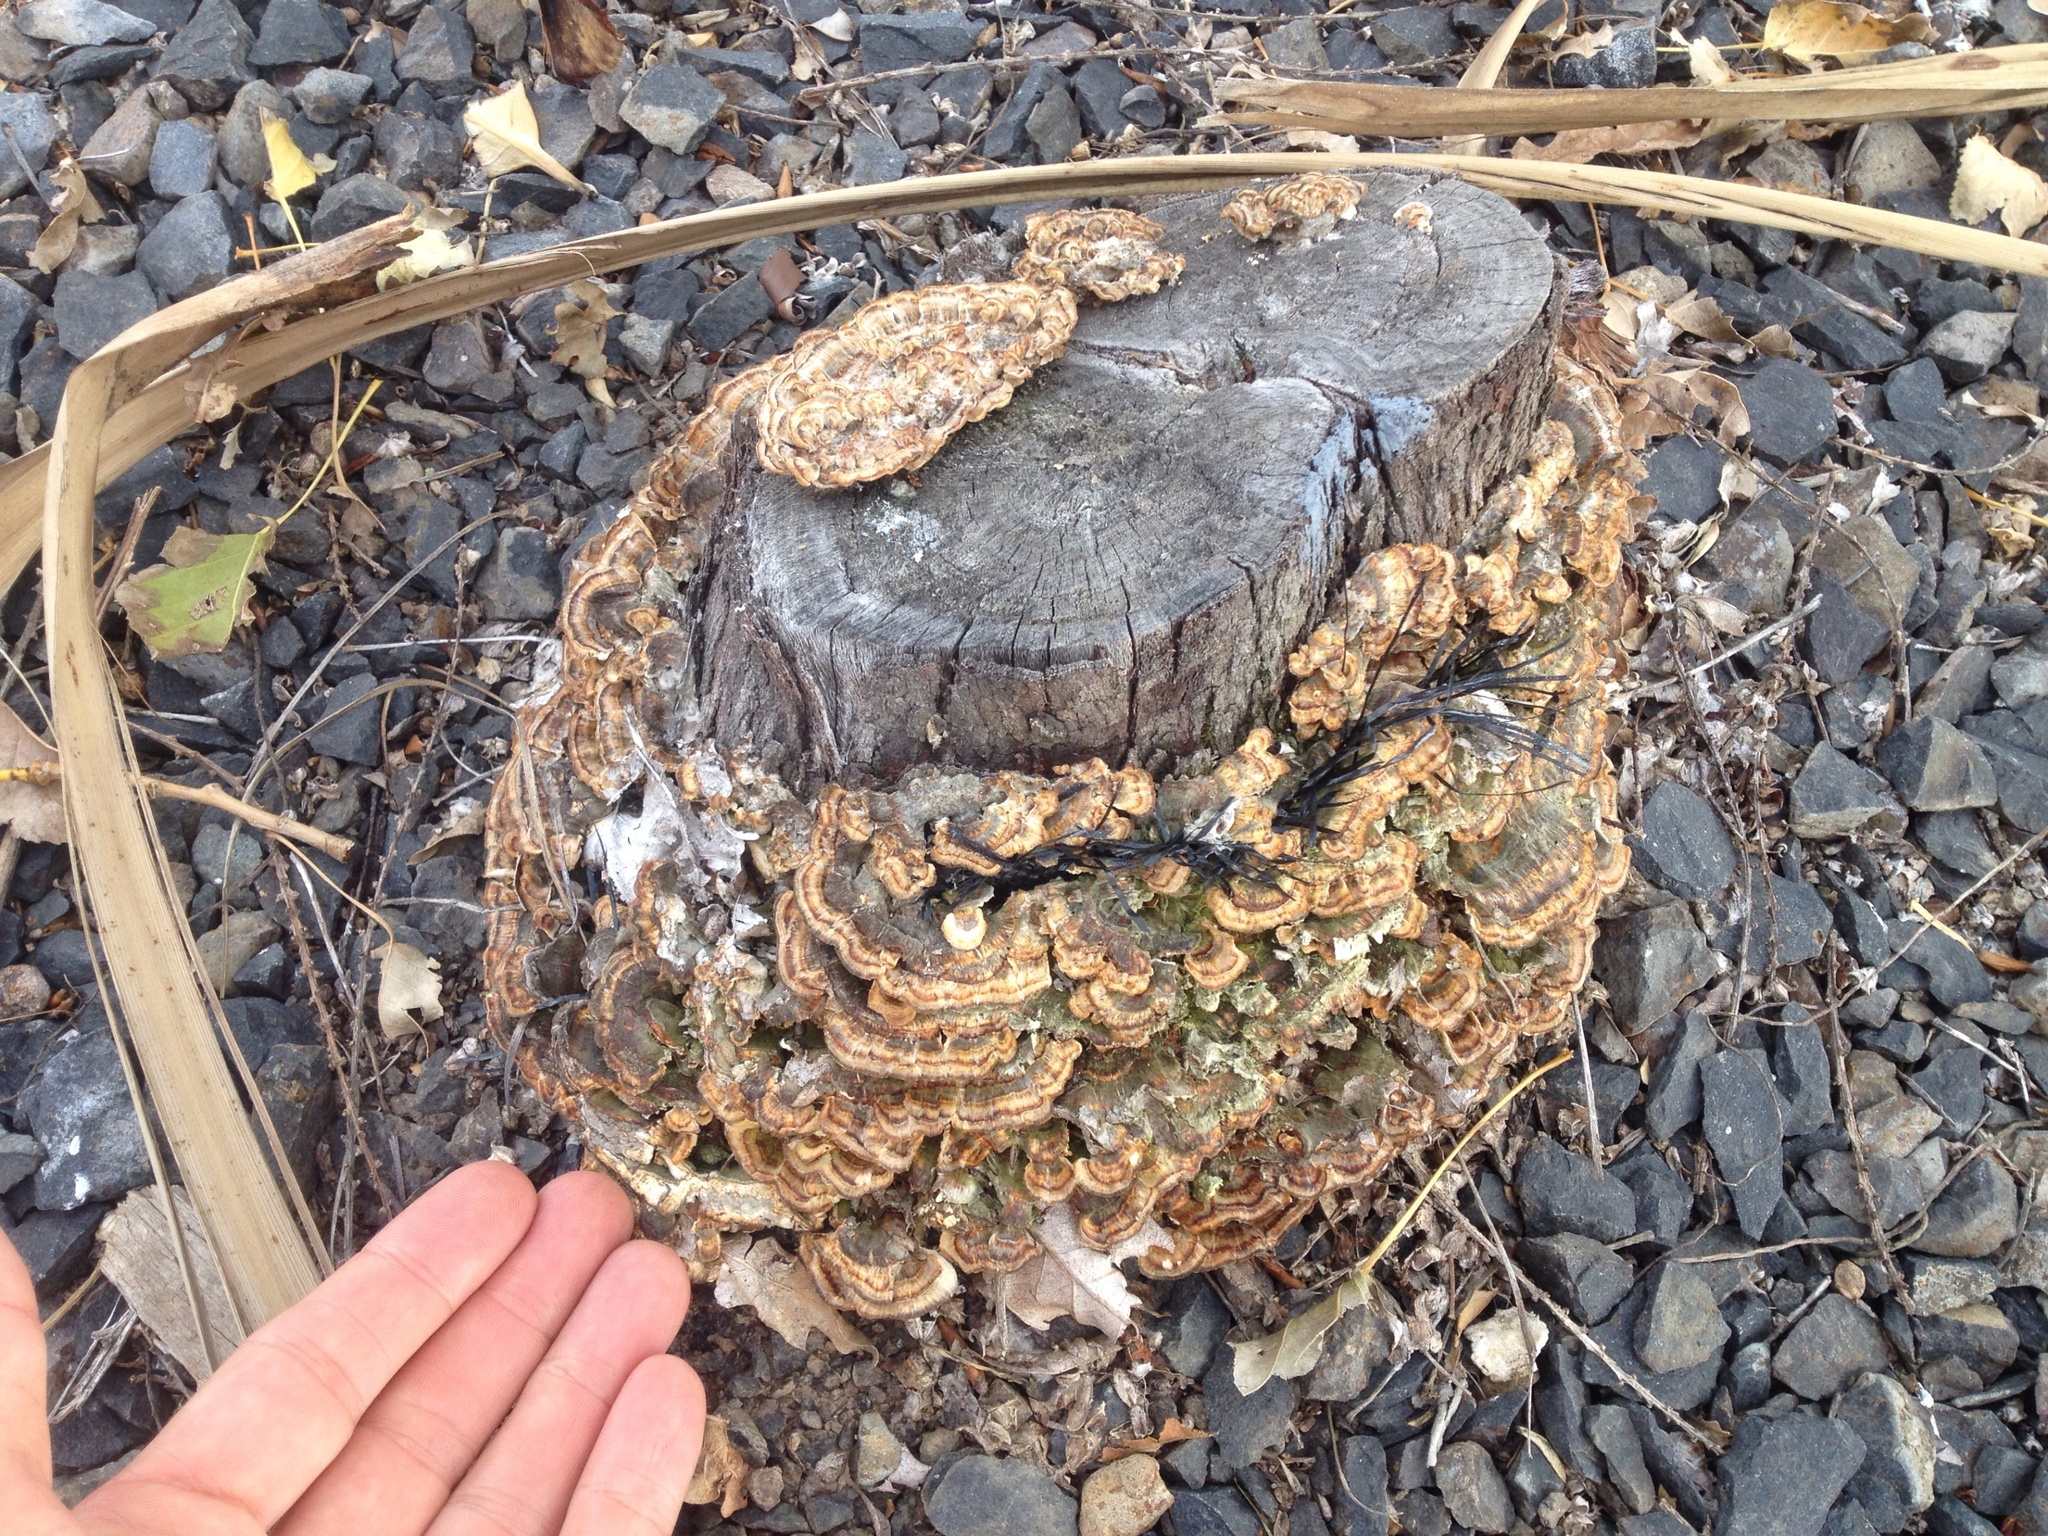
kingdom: Fungi
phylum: Basidiomycota
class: Agaricomycetes
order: Polyporales
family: Polyporaceae
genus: Trametes
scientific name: Trametes versicolor
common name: Turkeytail
